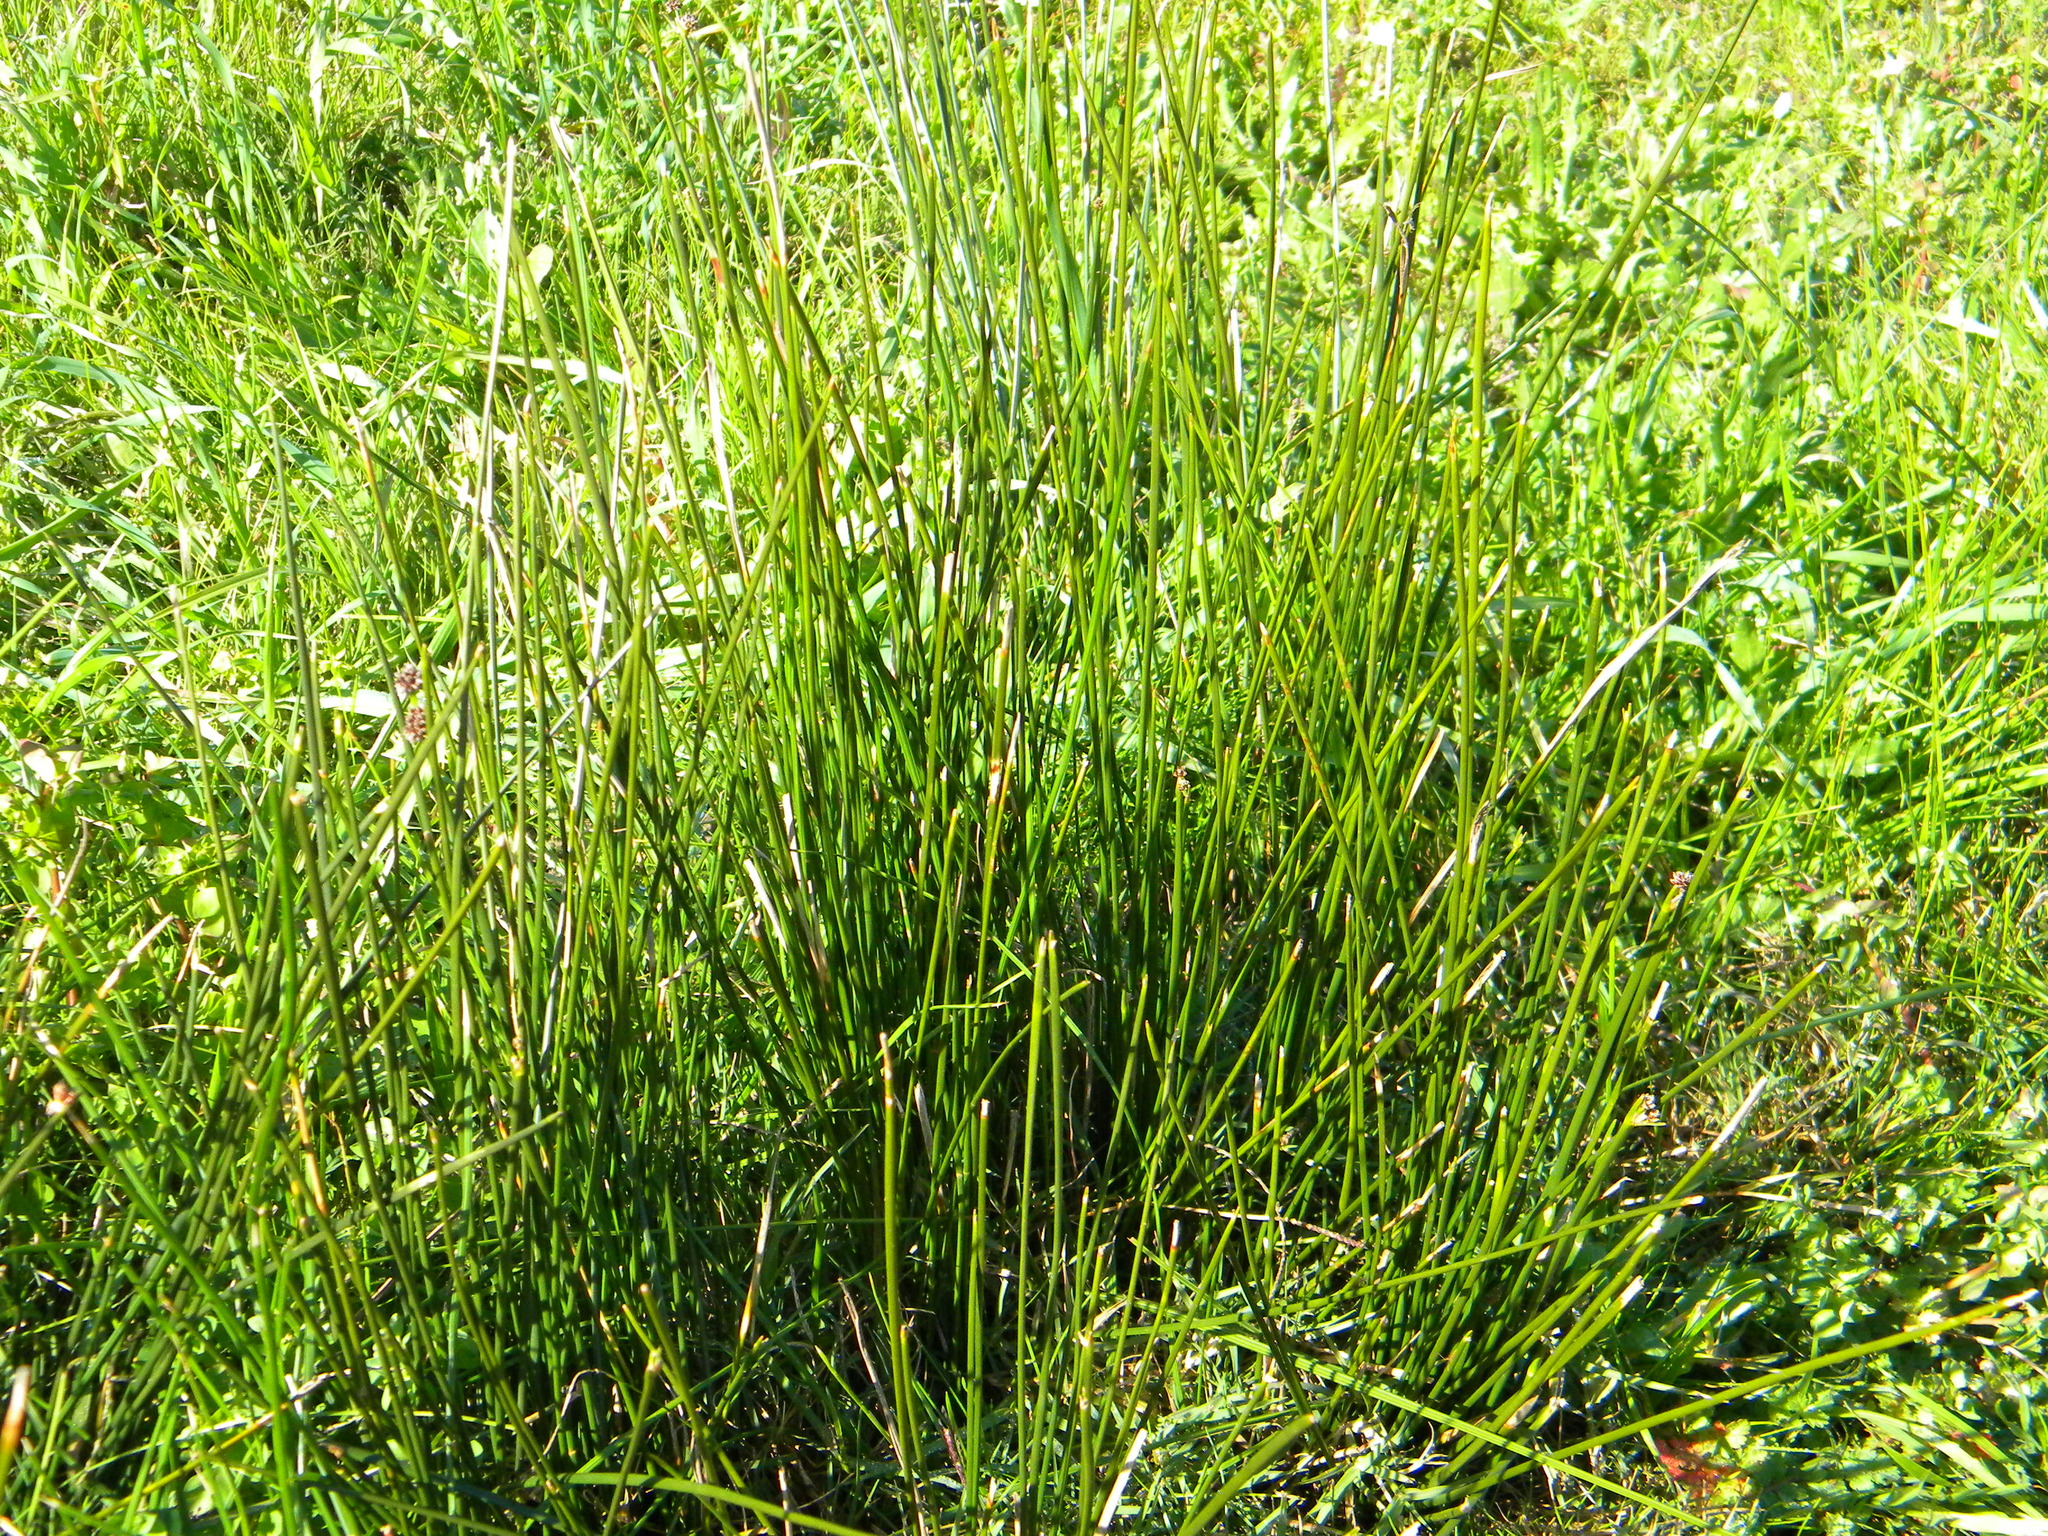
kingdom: Plantae
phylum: Tracheophyta
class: Liliopsida
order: Poales
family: Cyperaceae
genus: Isolepis
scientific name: Isolepis prolifera
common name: Proliferating bulrush
